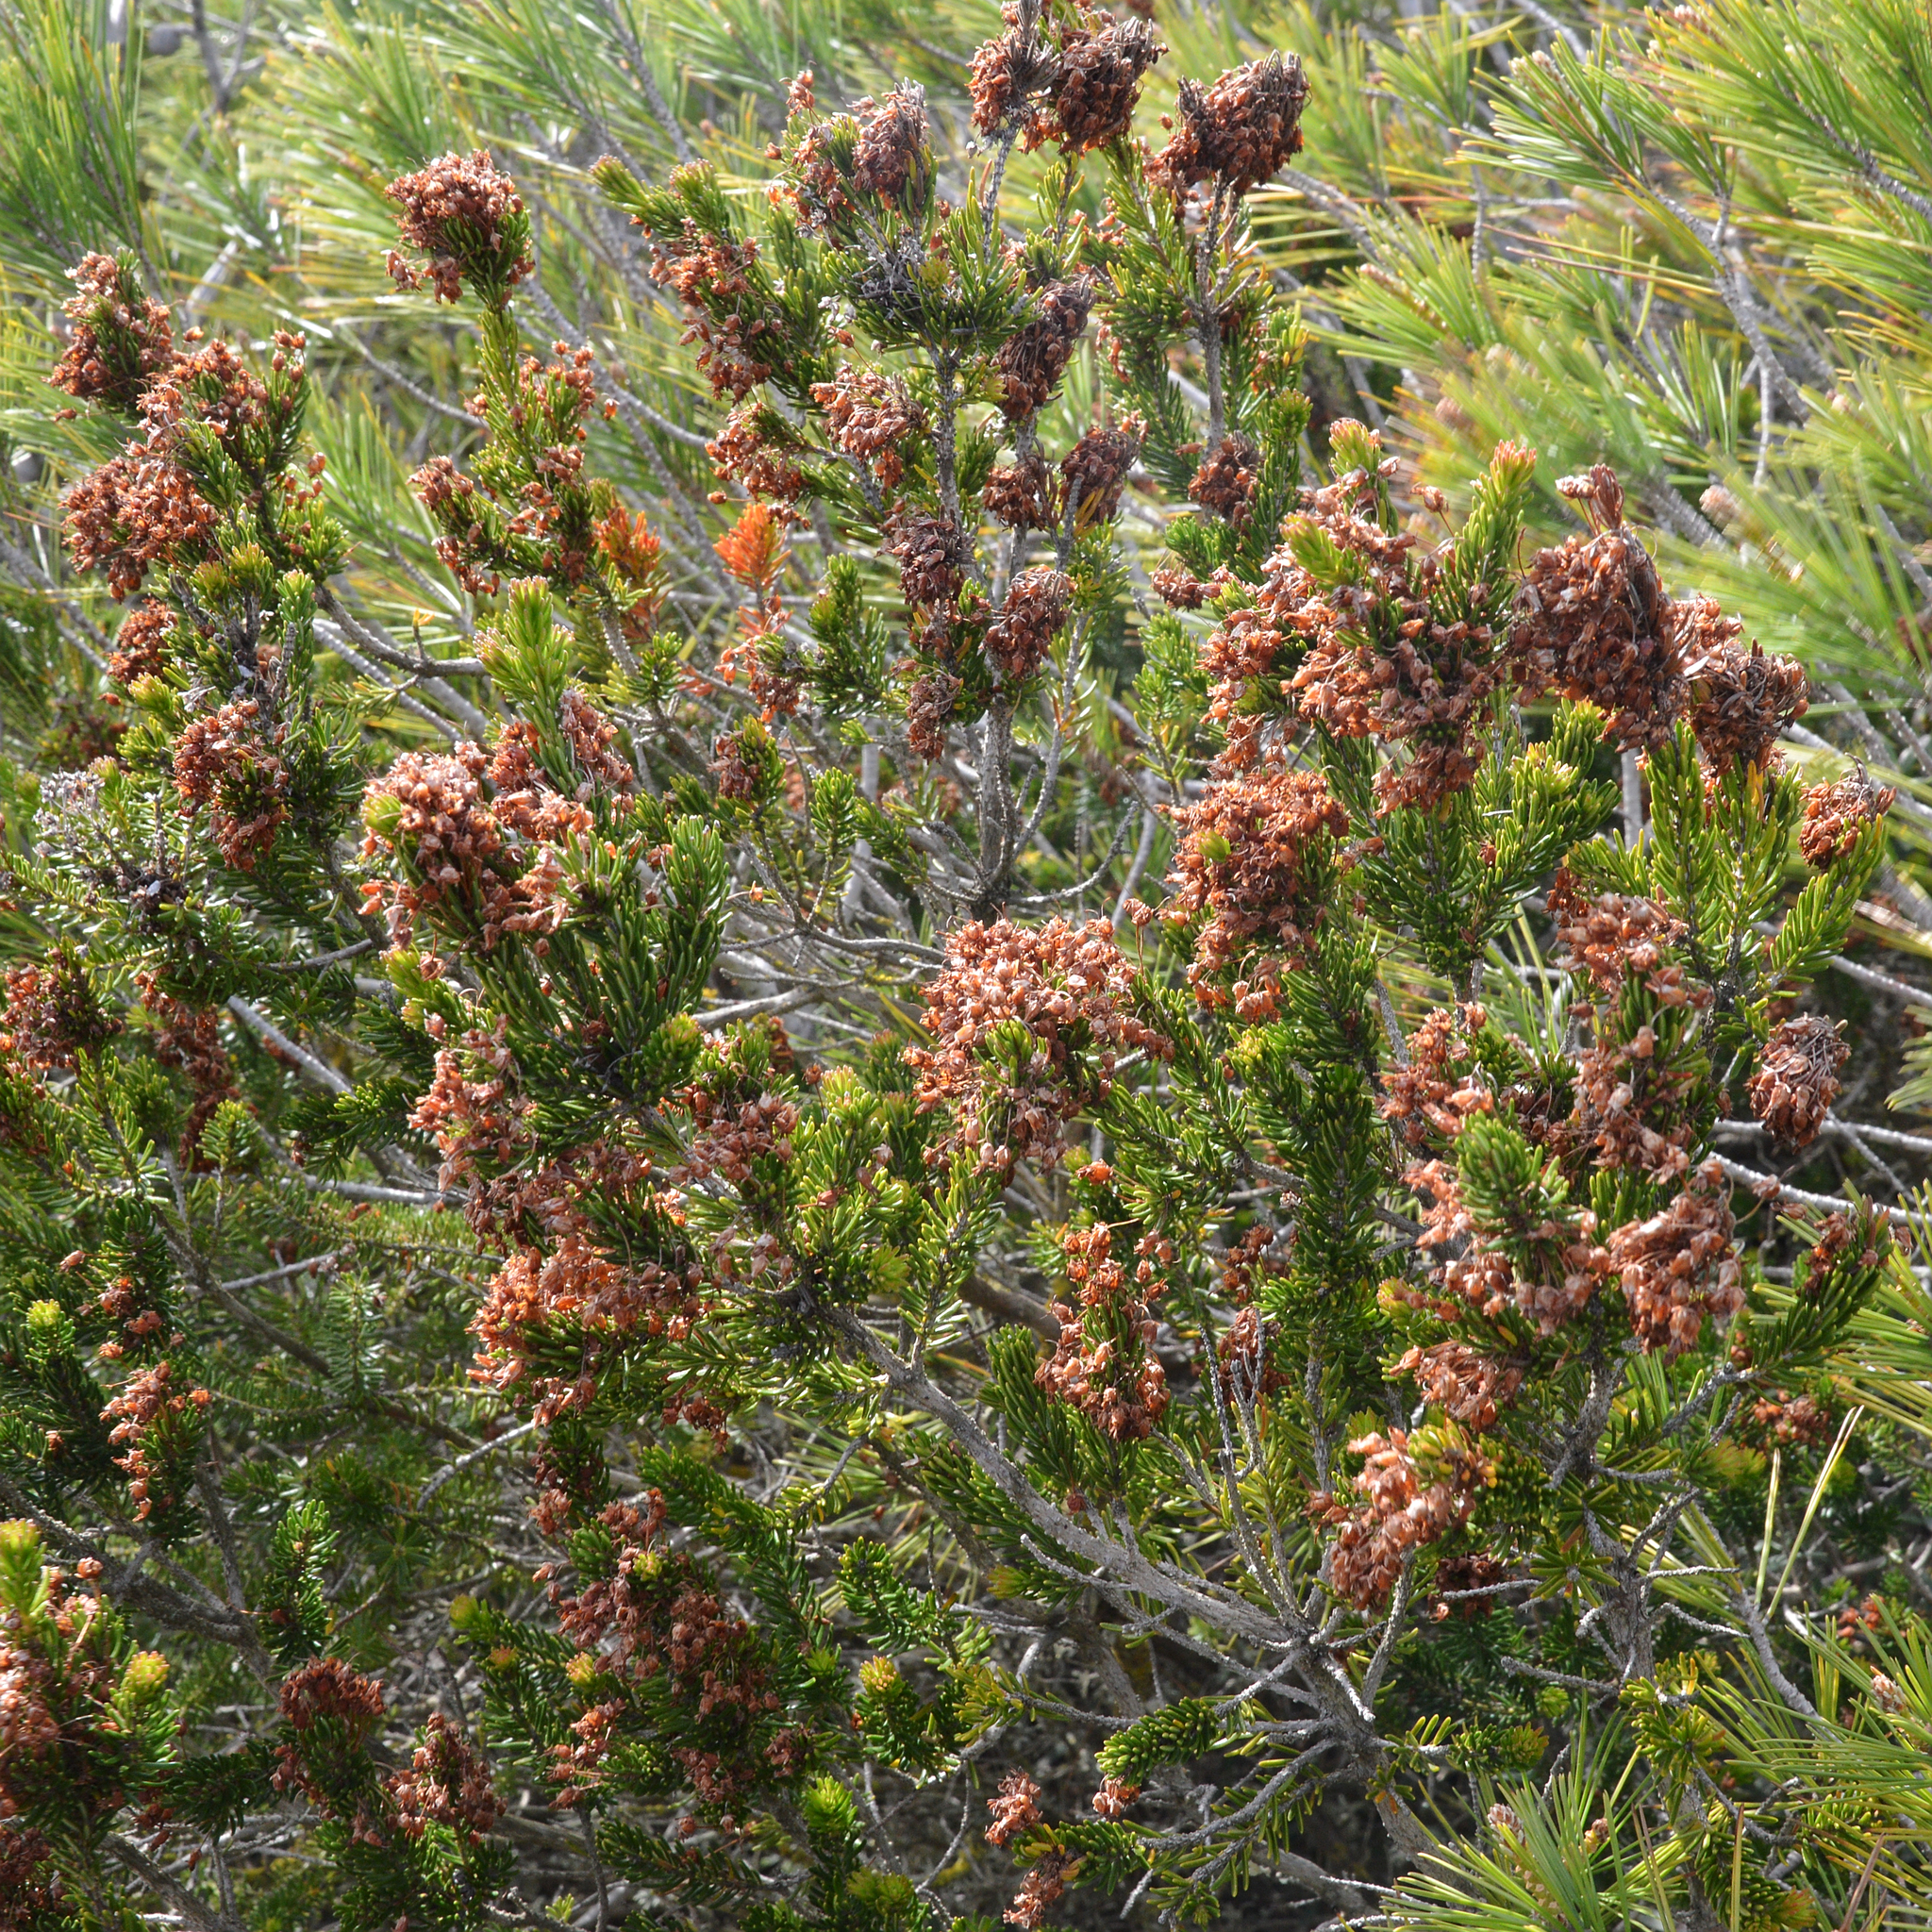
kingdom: Plantae
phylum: Tracheophyta
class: Magnoliopsida
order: Ericales
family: Ericaceae
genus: Erica
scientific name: Erica multiflora
